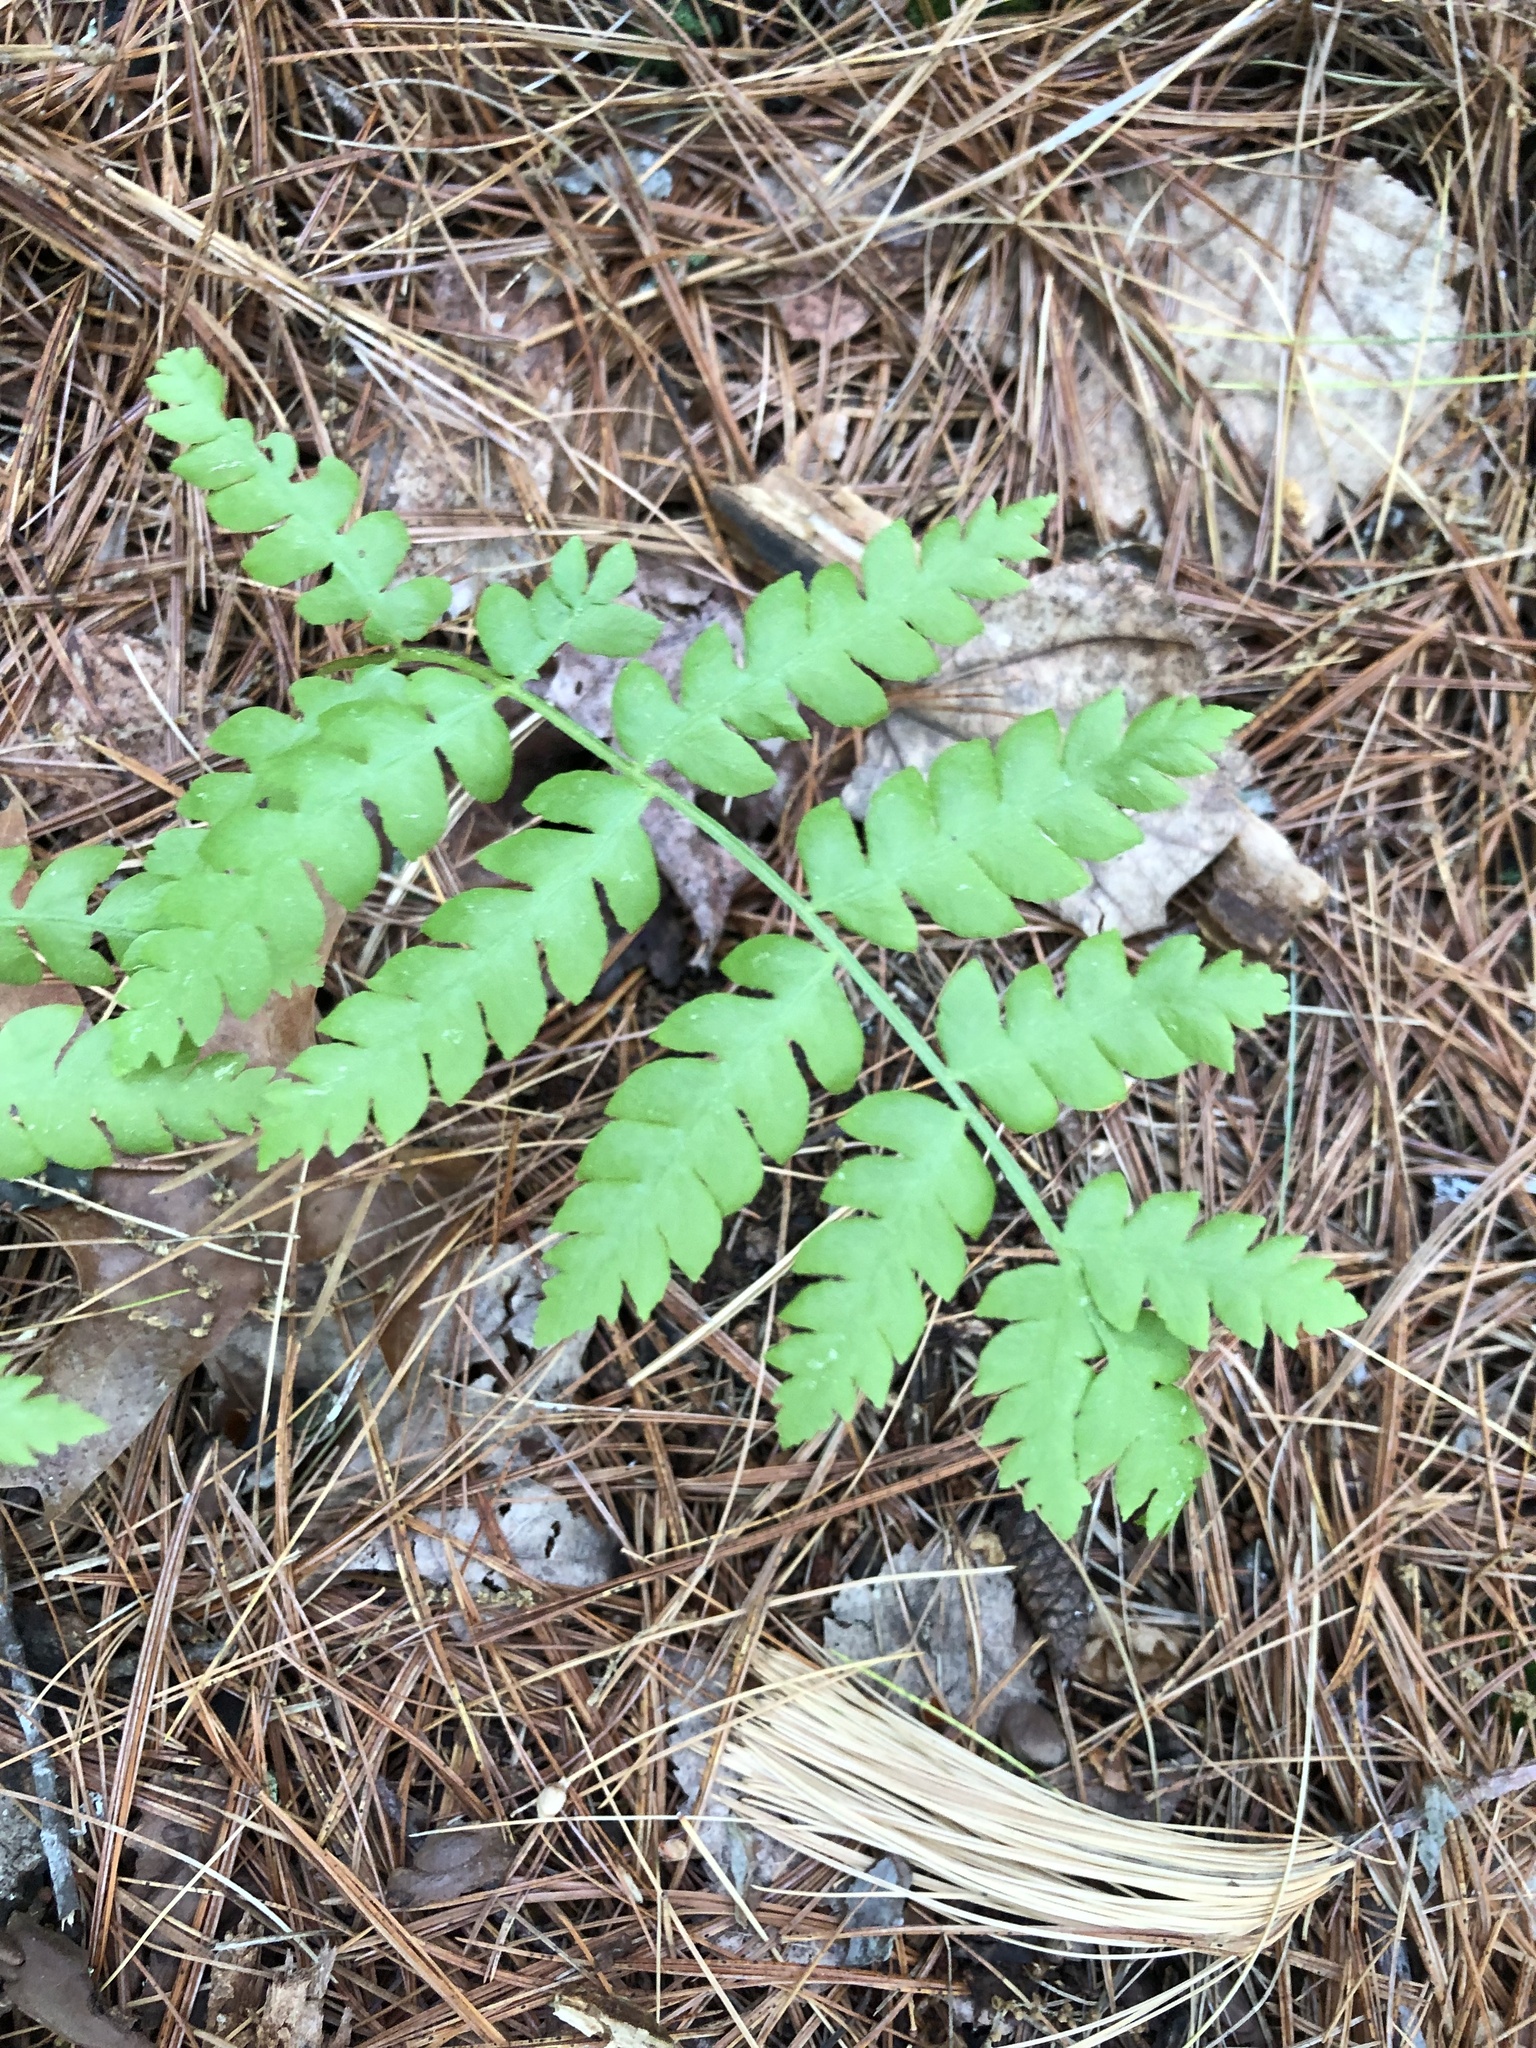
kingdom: Plantae
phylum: Tracheophyta
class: Polypodiopsida
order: Osmundales
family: Osmundaceae
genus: Osmundastrum
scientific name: Osmundastrum cinnamomeum
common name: Cinnamon fern
